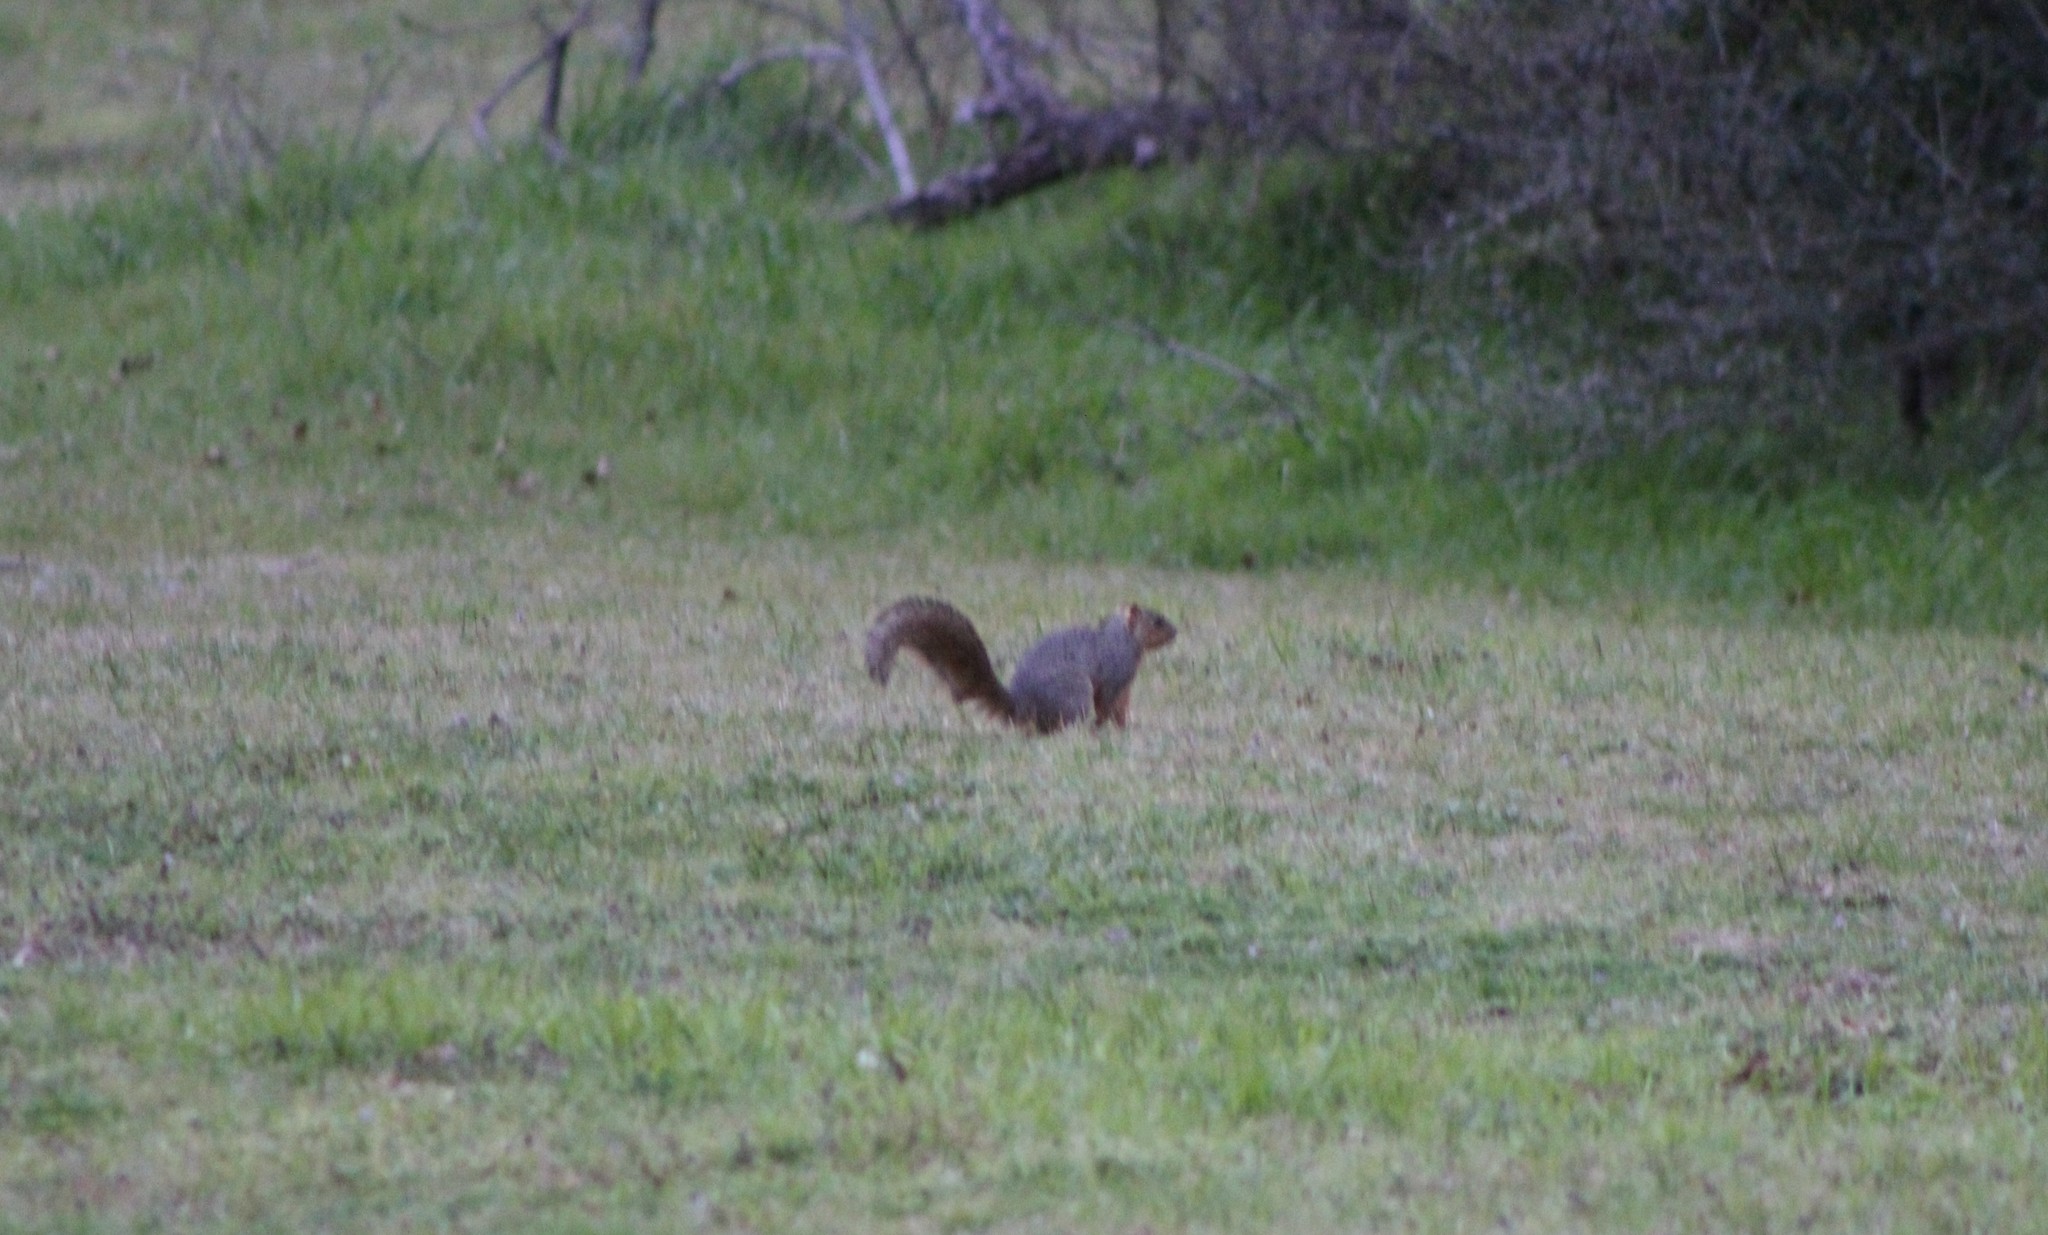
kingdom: Animalia
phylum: Chordata
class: Mammalia
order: Rodentia
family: Sciuridae
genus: Sciurus
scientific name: Sciurus niger
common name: Fox squirrel
